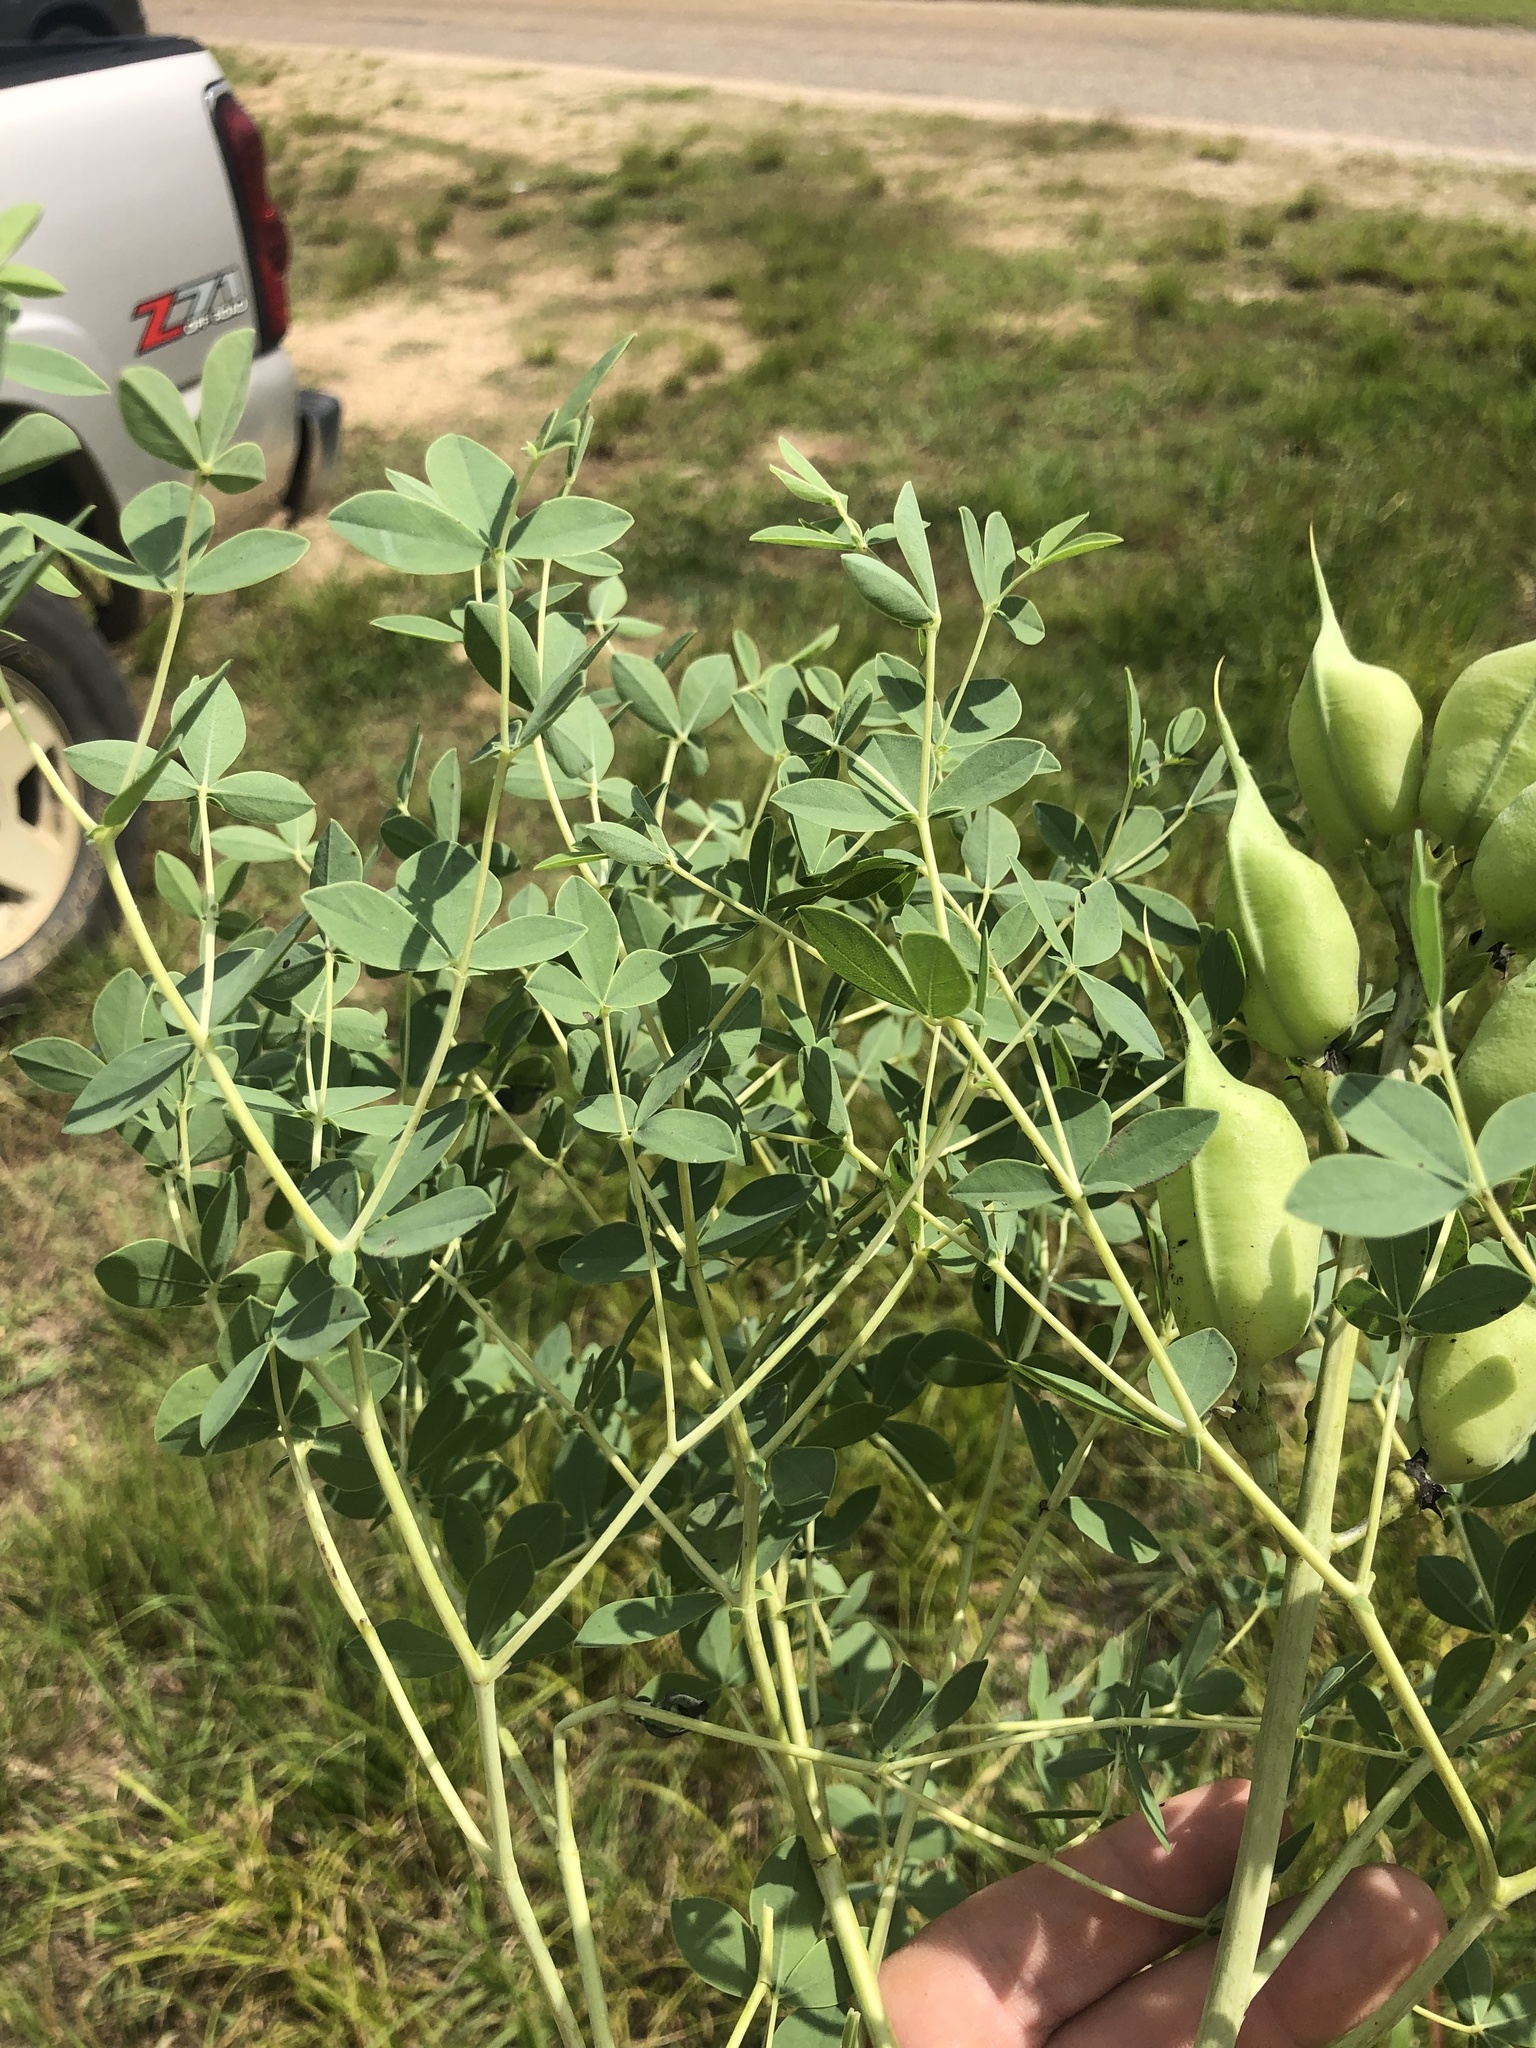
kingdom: Plantae
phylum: Tracheophyta
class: Magnoliopsida
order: Fabales
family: Fabaceae
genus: Baptisia
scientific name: Baptisia aberrans
